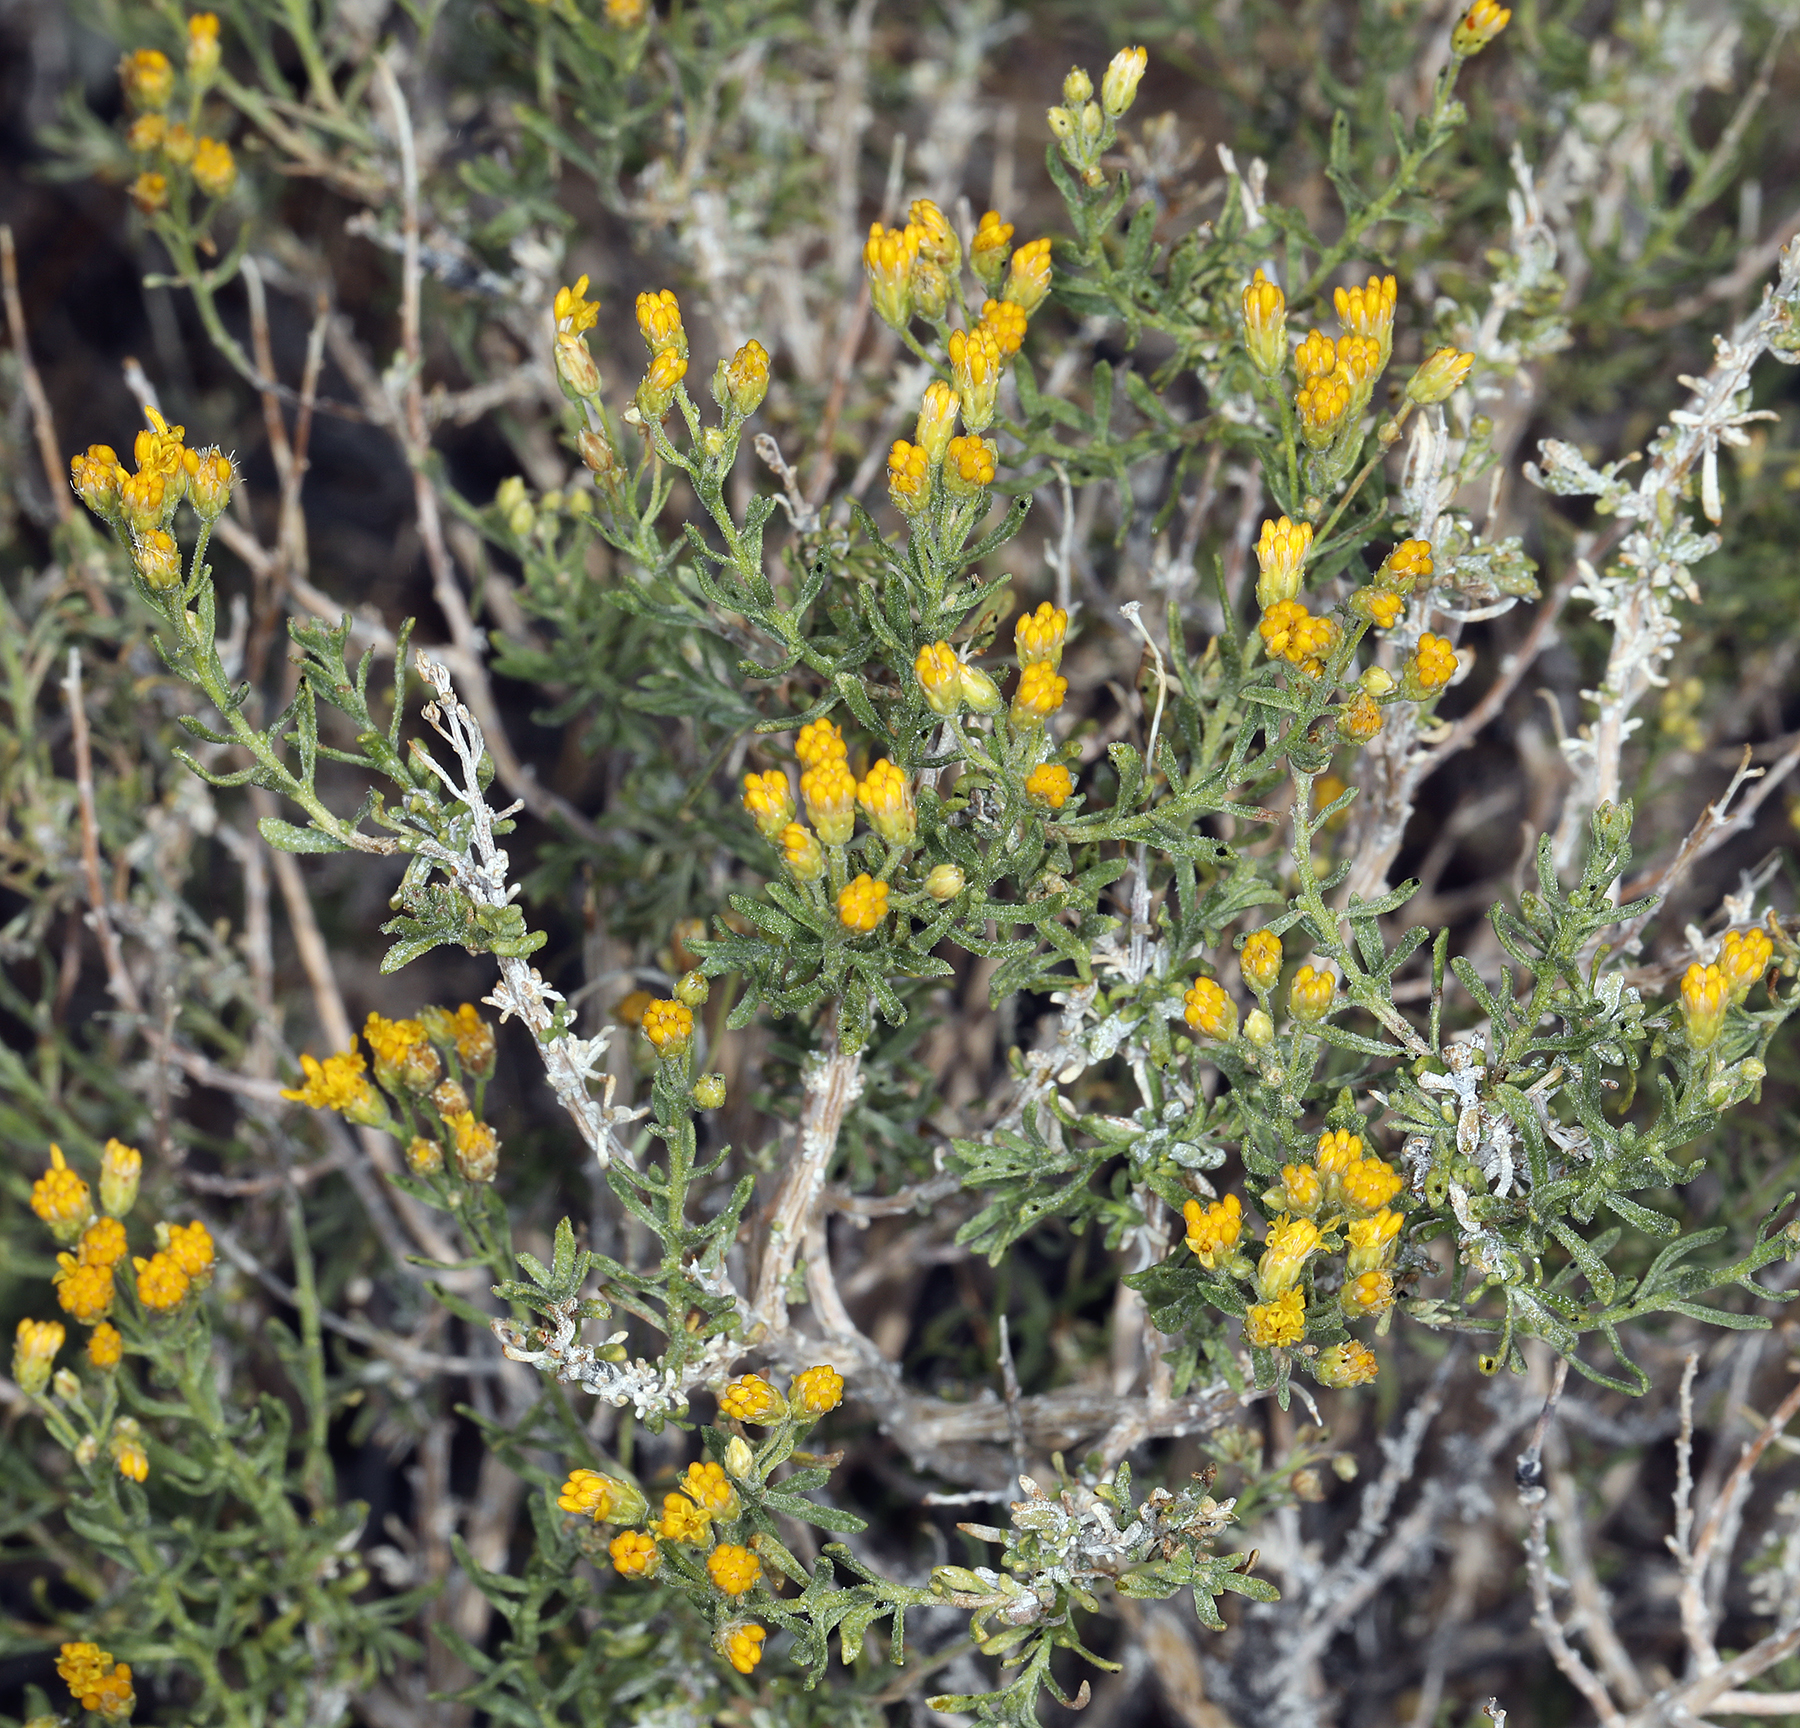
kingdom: Plantae
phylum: Tracheophyta
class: Magnoliopsida
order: Asterales
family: Asteraceae
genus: Ericameria
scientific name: Ericameria cooperi
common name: Cooper's goldenbush
